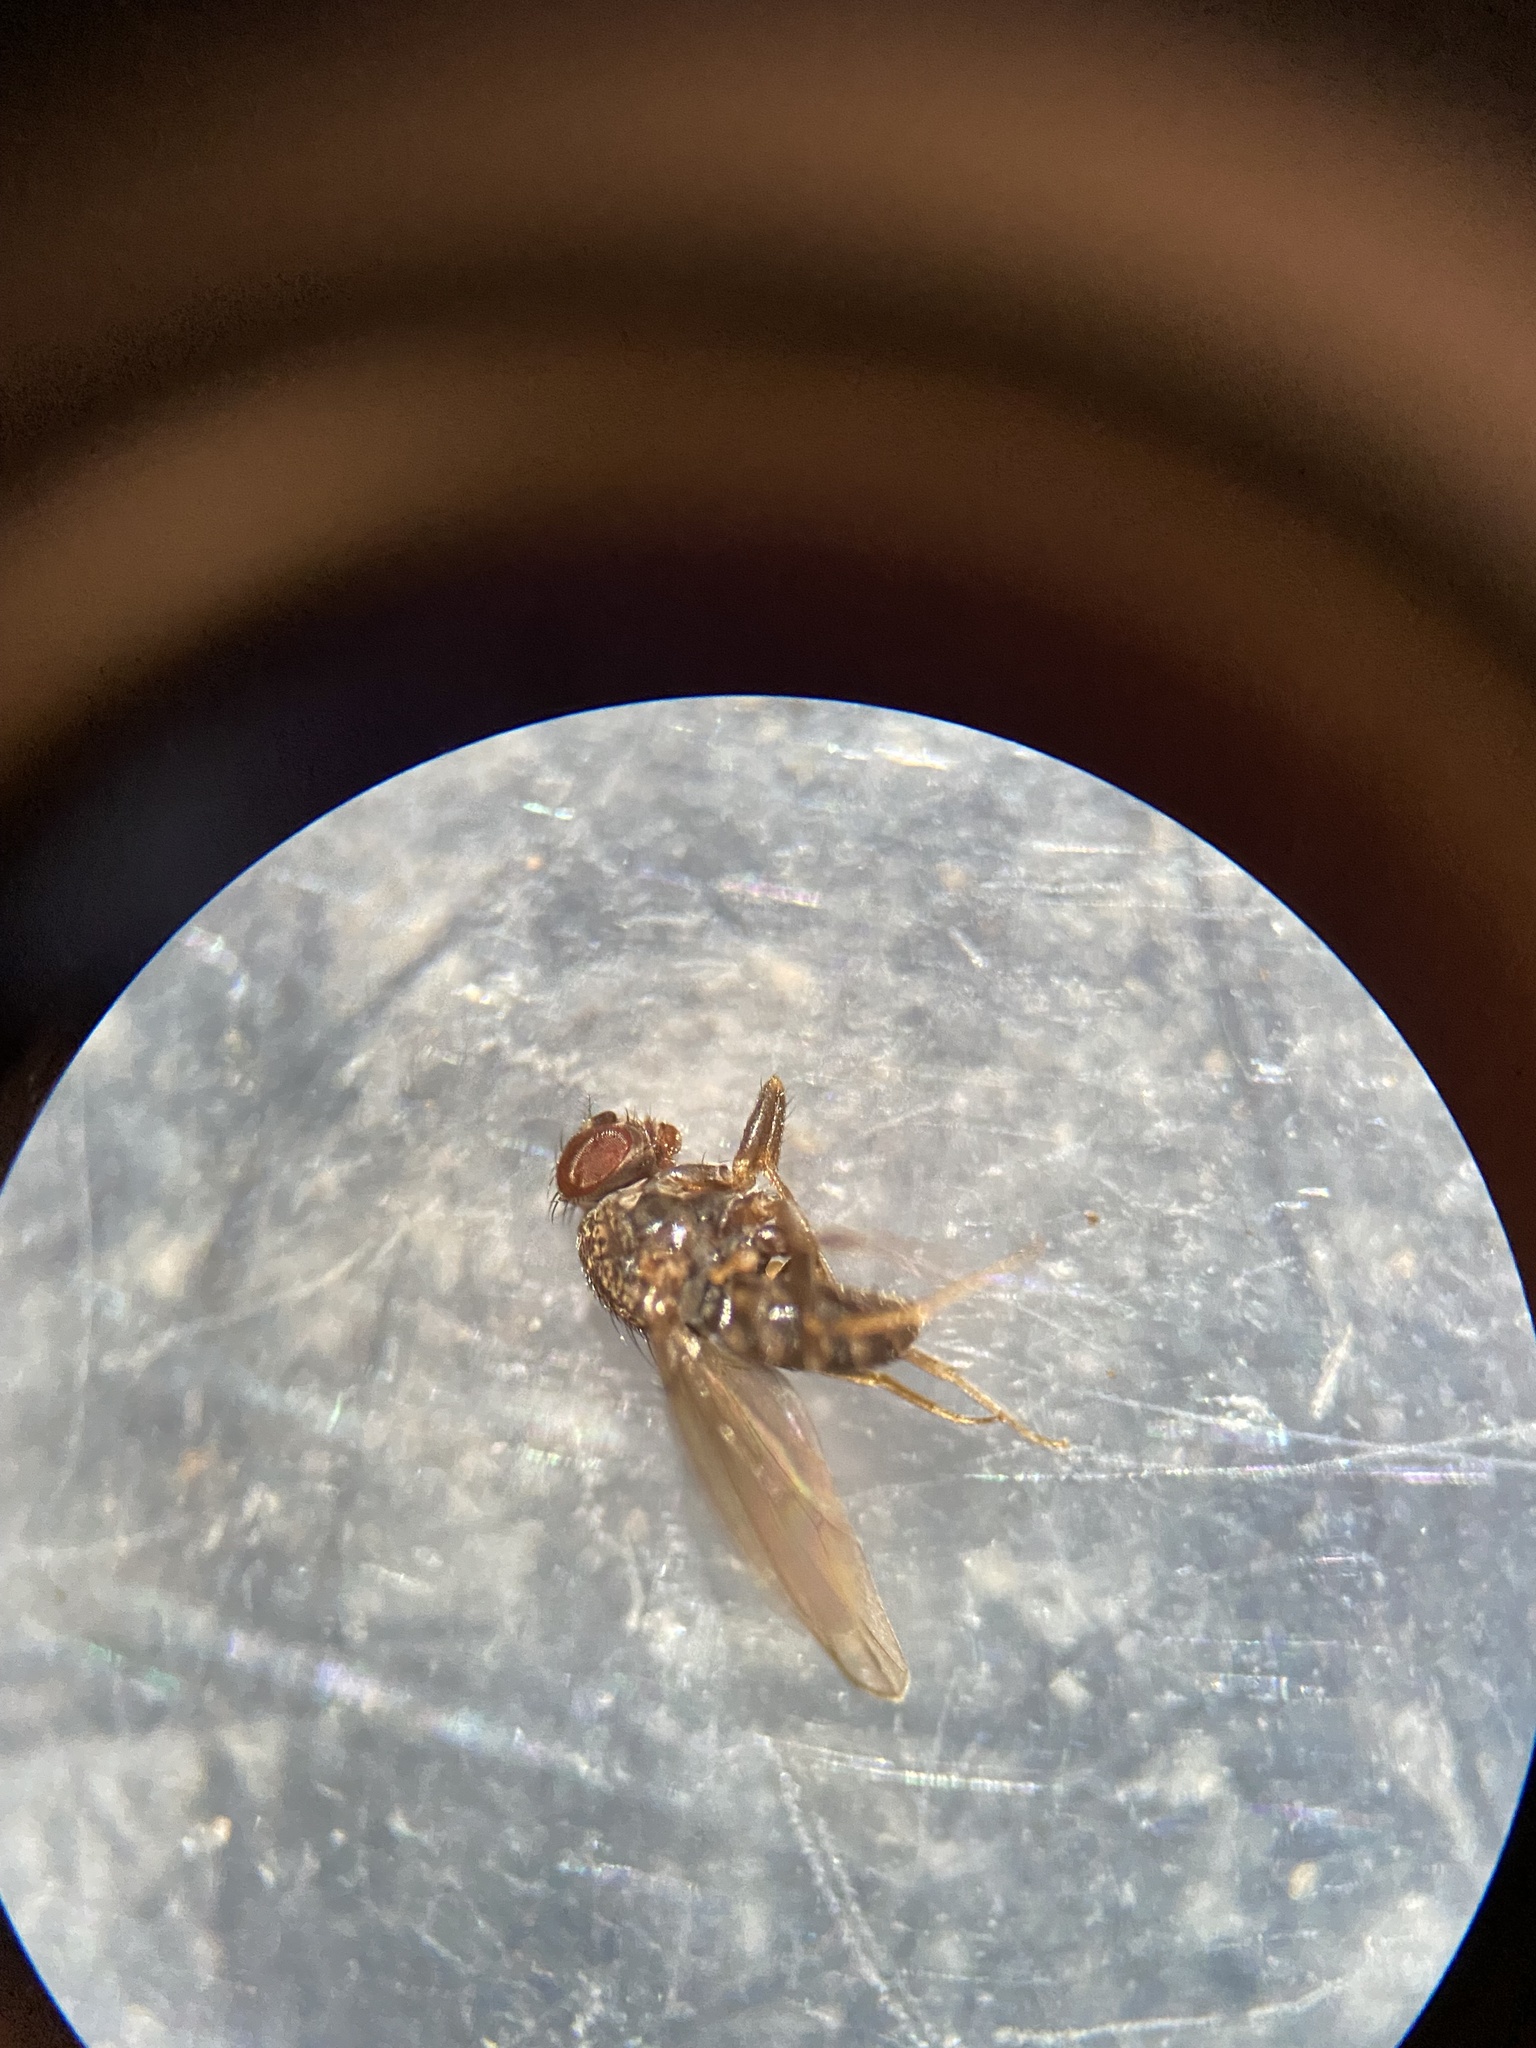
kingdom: Animalia
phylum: Arthropoda
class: Insecta
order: Diptera
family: Drosophilidae
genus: Drosophila
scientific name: Drosophila repleta
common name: Pomace fly
